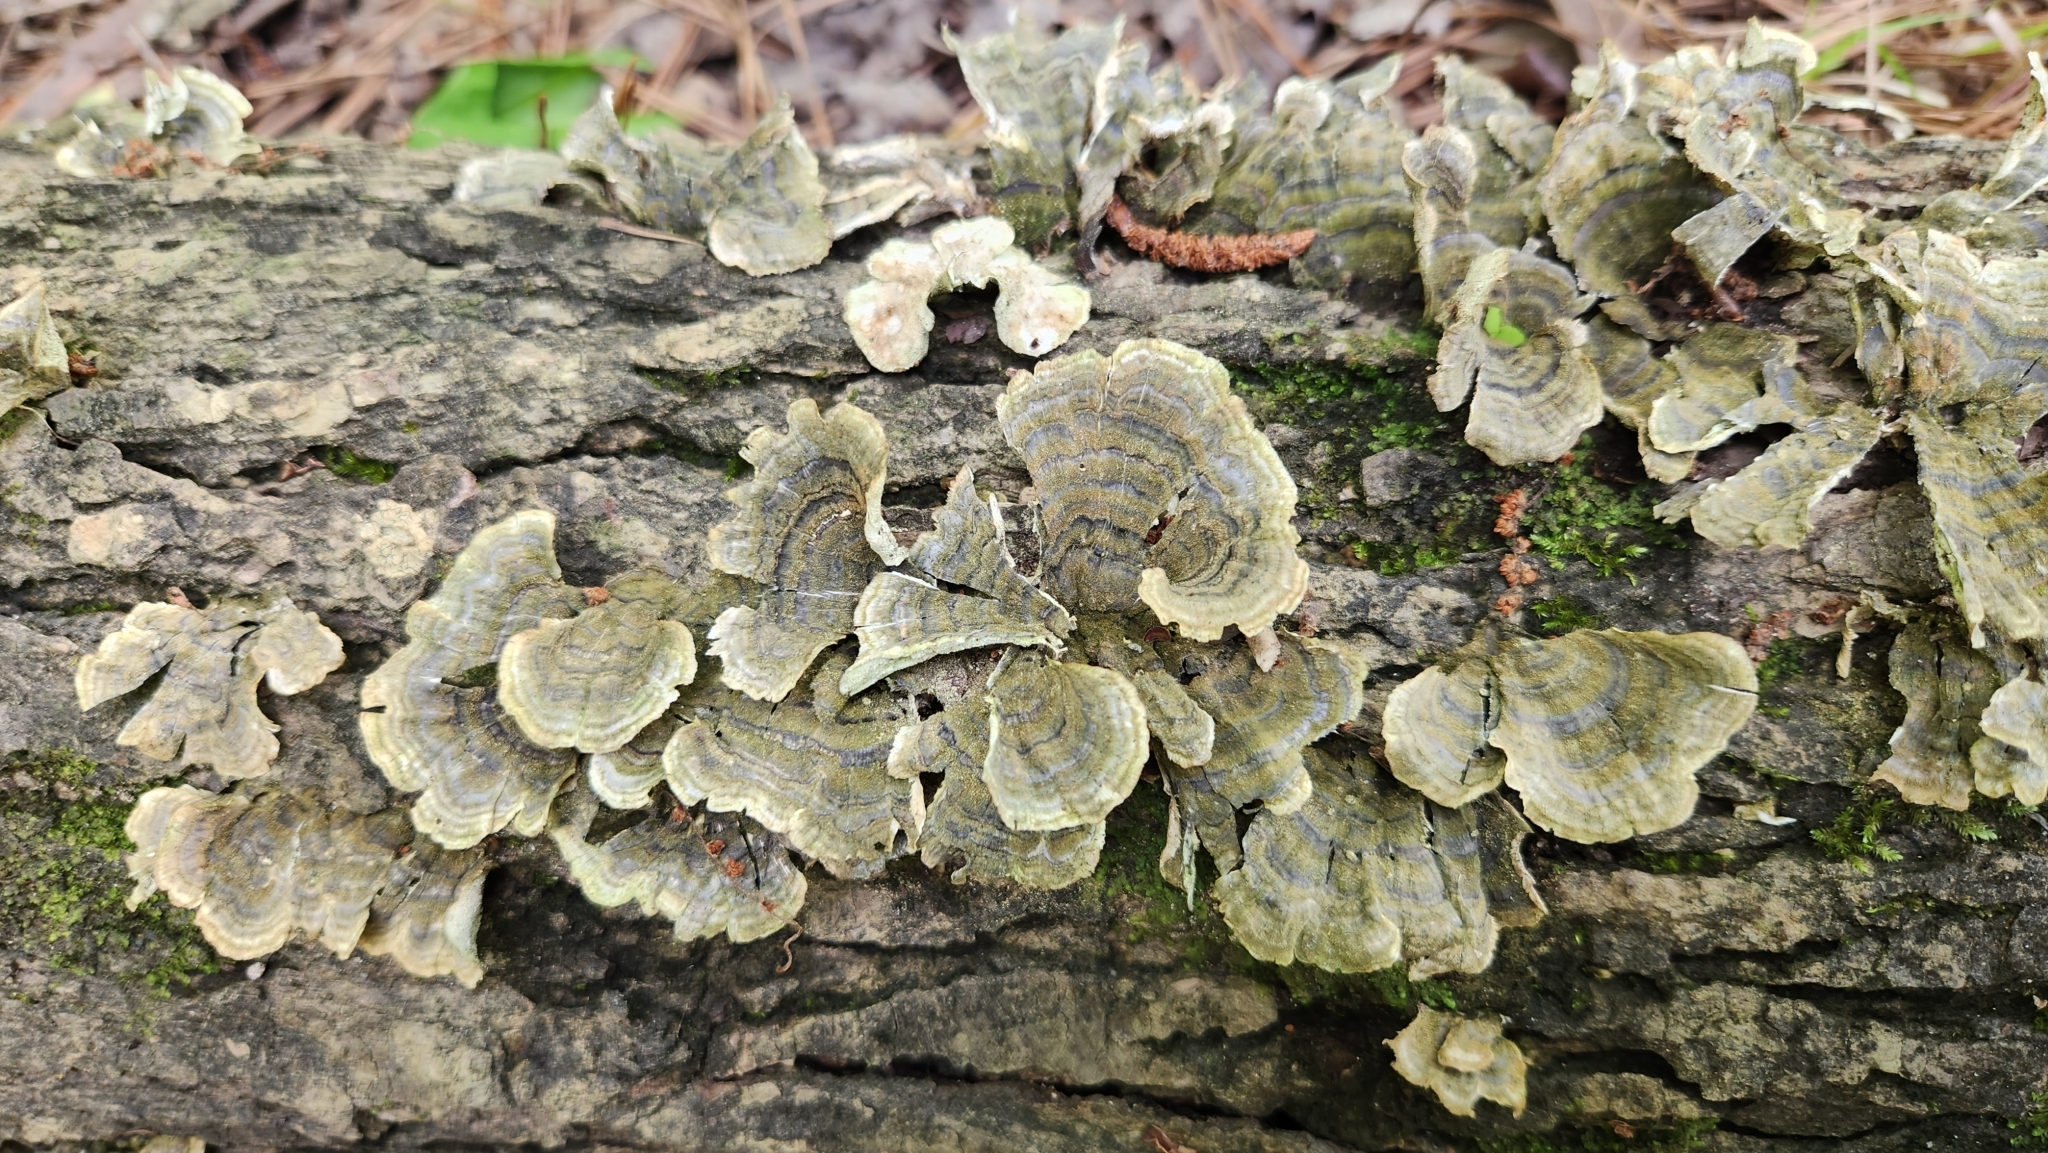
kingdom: Fungi
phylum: Basidiomycota
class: Agaricomycetes
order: Polyporales
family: Polyporaceae
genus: Trametes
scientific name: Trametes versicolor
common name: Turkeytail
